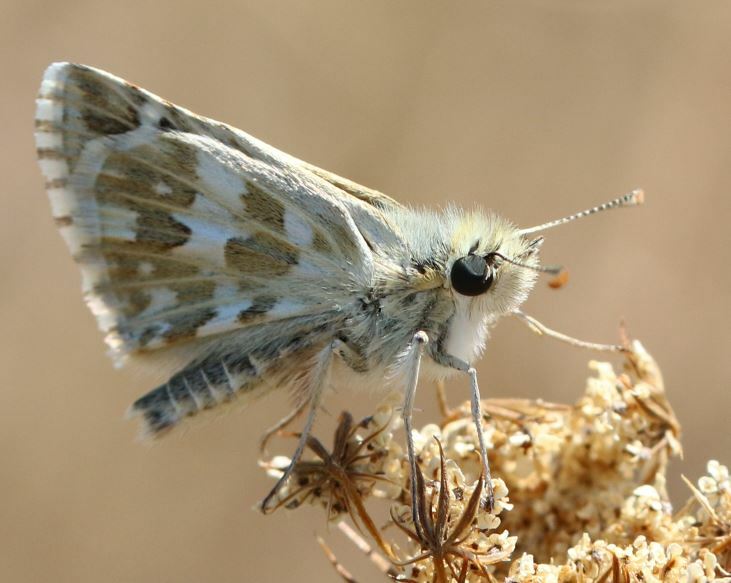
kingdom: Animalia
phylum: Arthropoda
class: Insecta
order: Lepidoptera
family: Hesperiidae
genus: Pyrgus
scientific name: Pyrgus onopordi
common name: Rosy grizzled skipper
